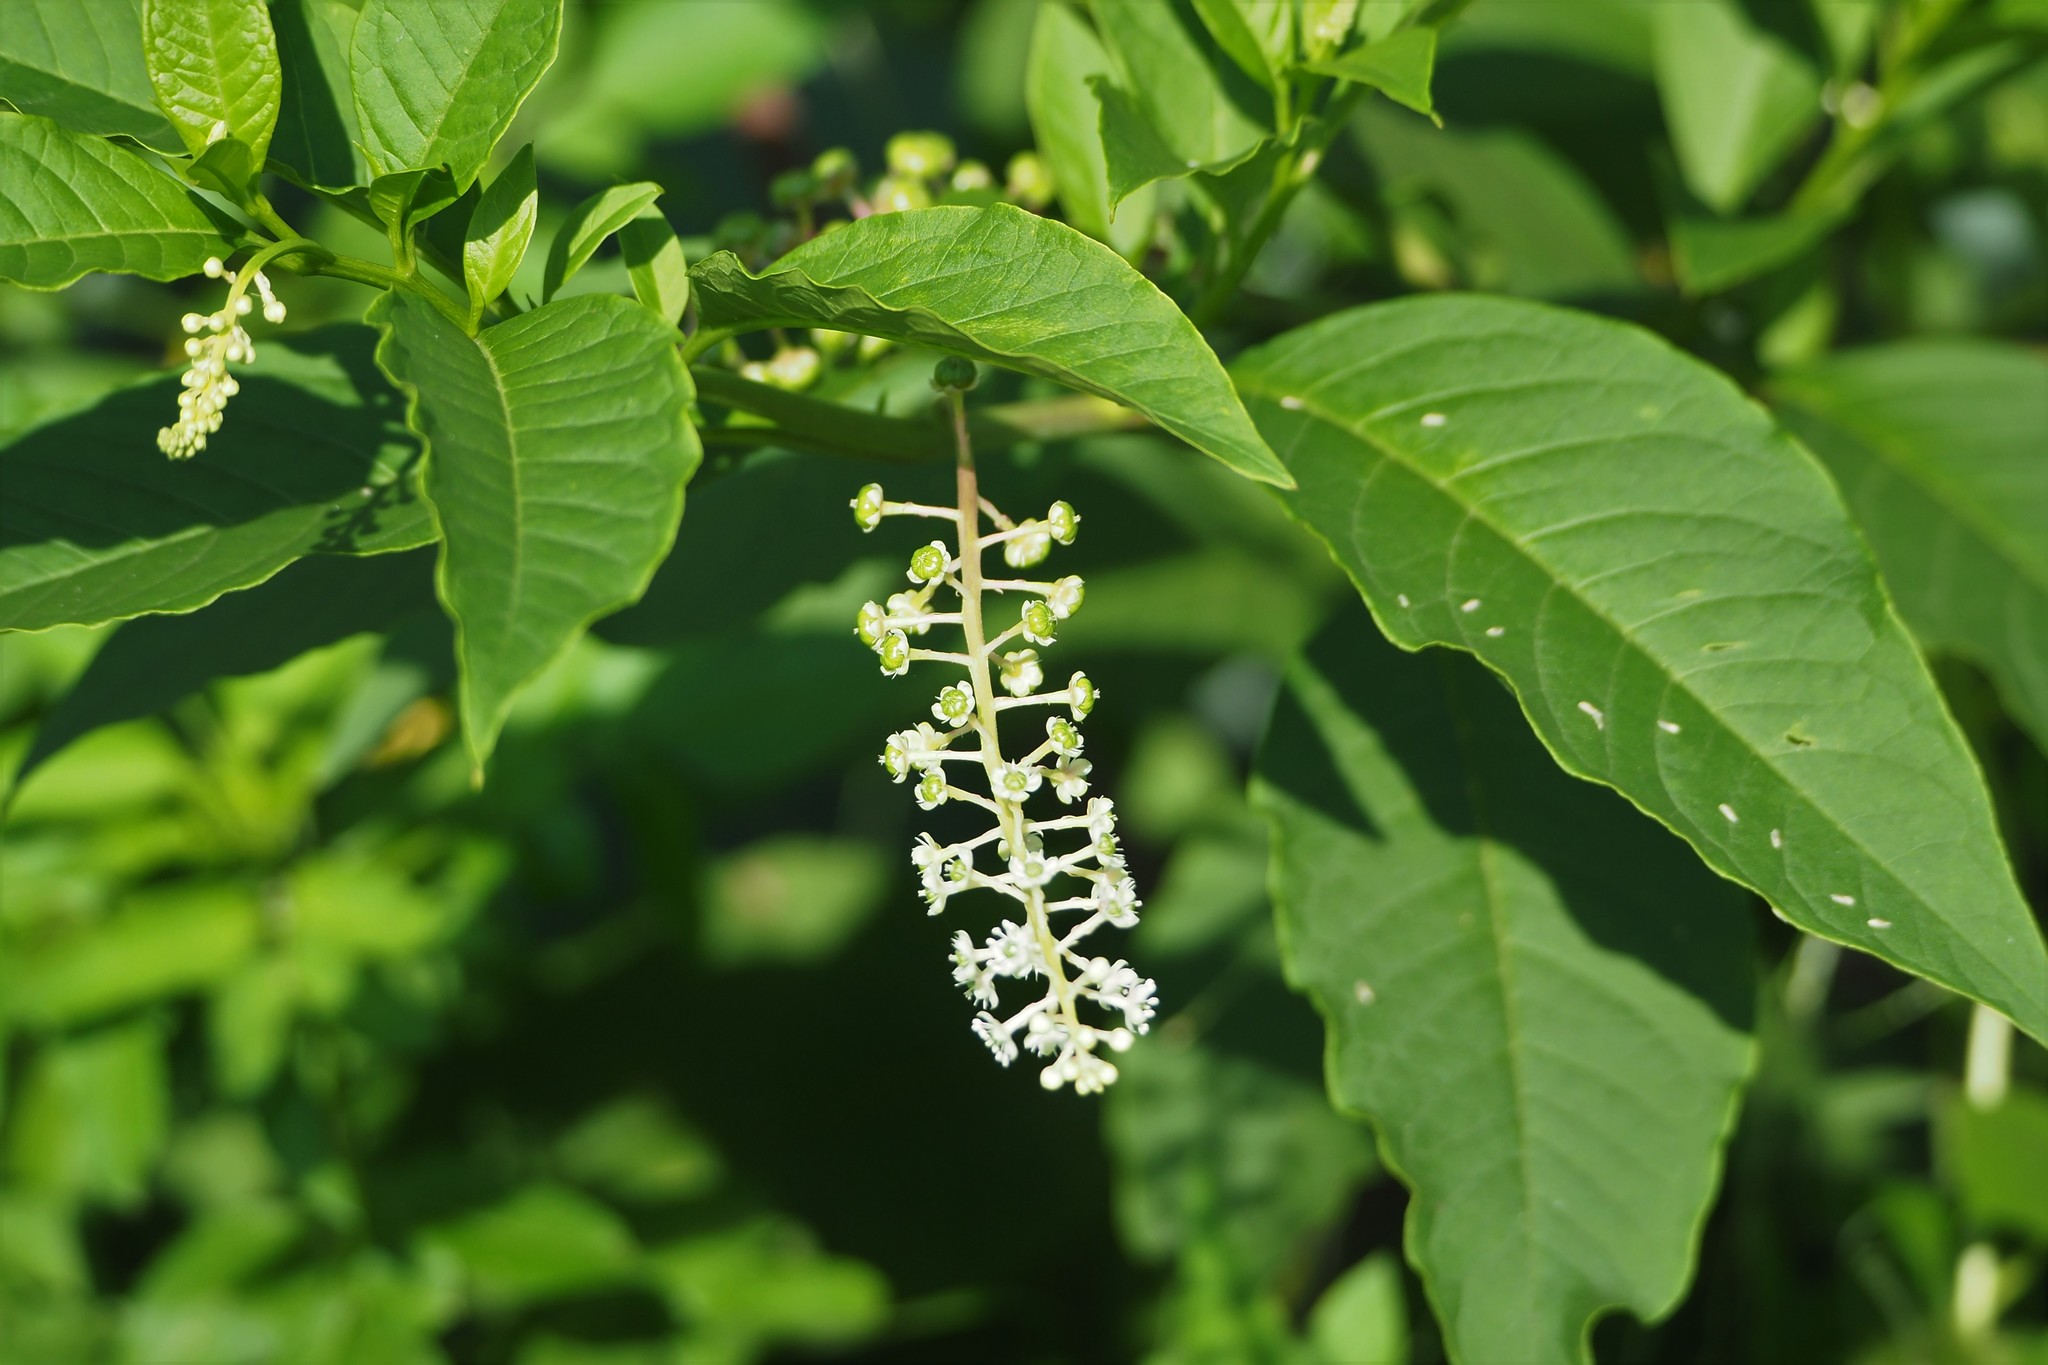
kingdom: Plantae
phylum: Tracheophyta
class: Magnoliopsida
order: Caryophyllales
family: Phytolaccaceae
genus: Phytolacca
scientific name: Phytolacca americana
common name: American pokeweed
